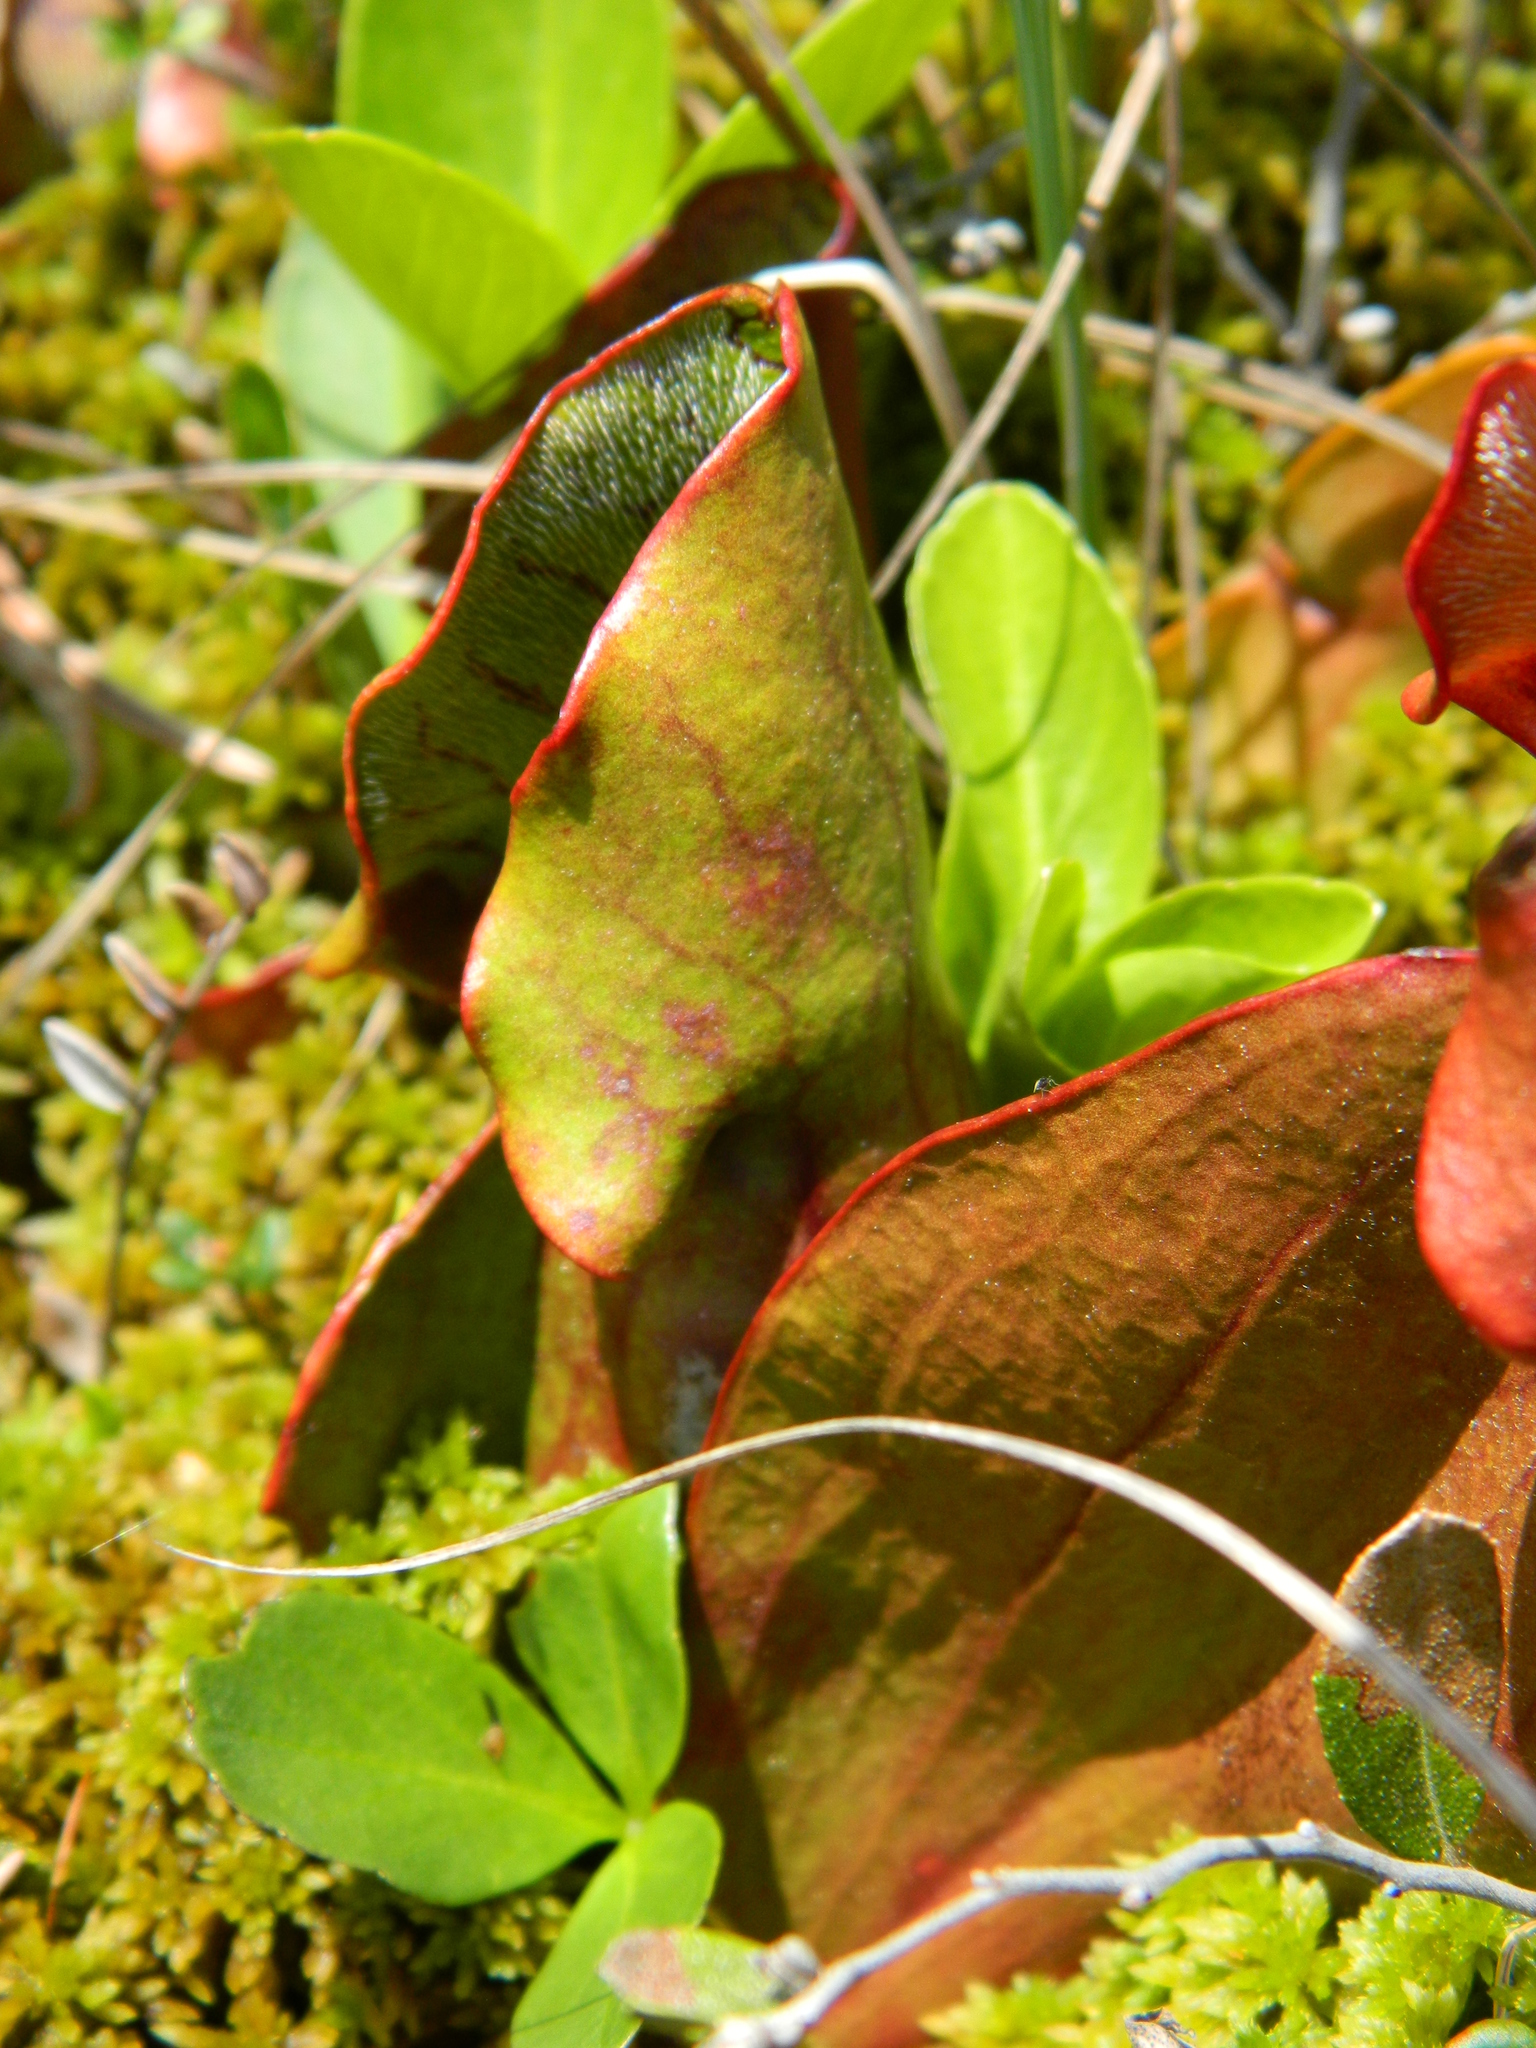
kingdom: Plantae
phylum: Tracheophyta
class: Magnoliopsida
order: Ericales
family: Sarraceniaceae
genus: Sarracenia
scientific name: Sarracenia purpurea
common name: Pitcherplant
